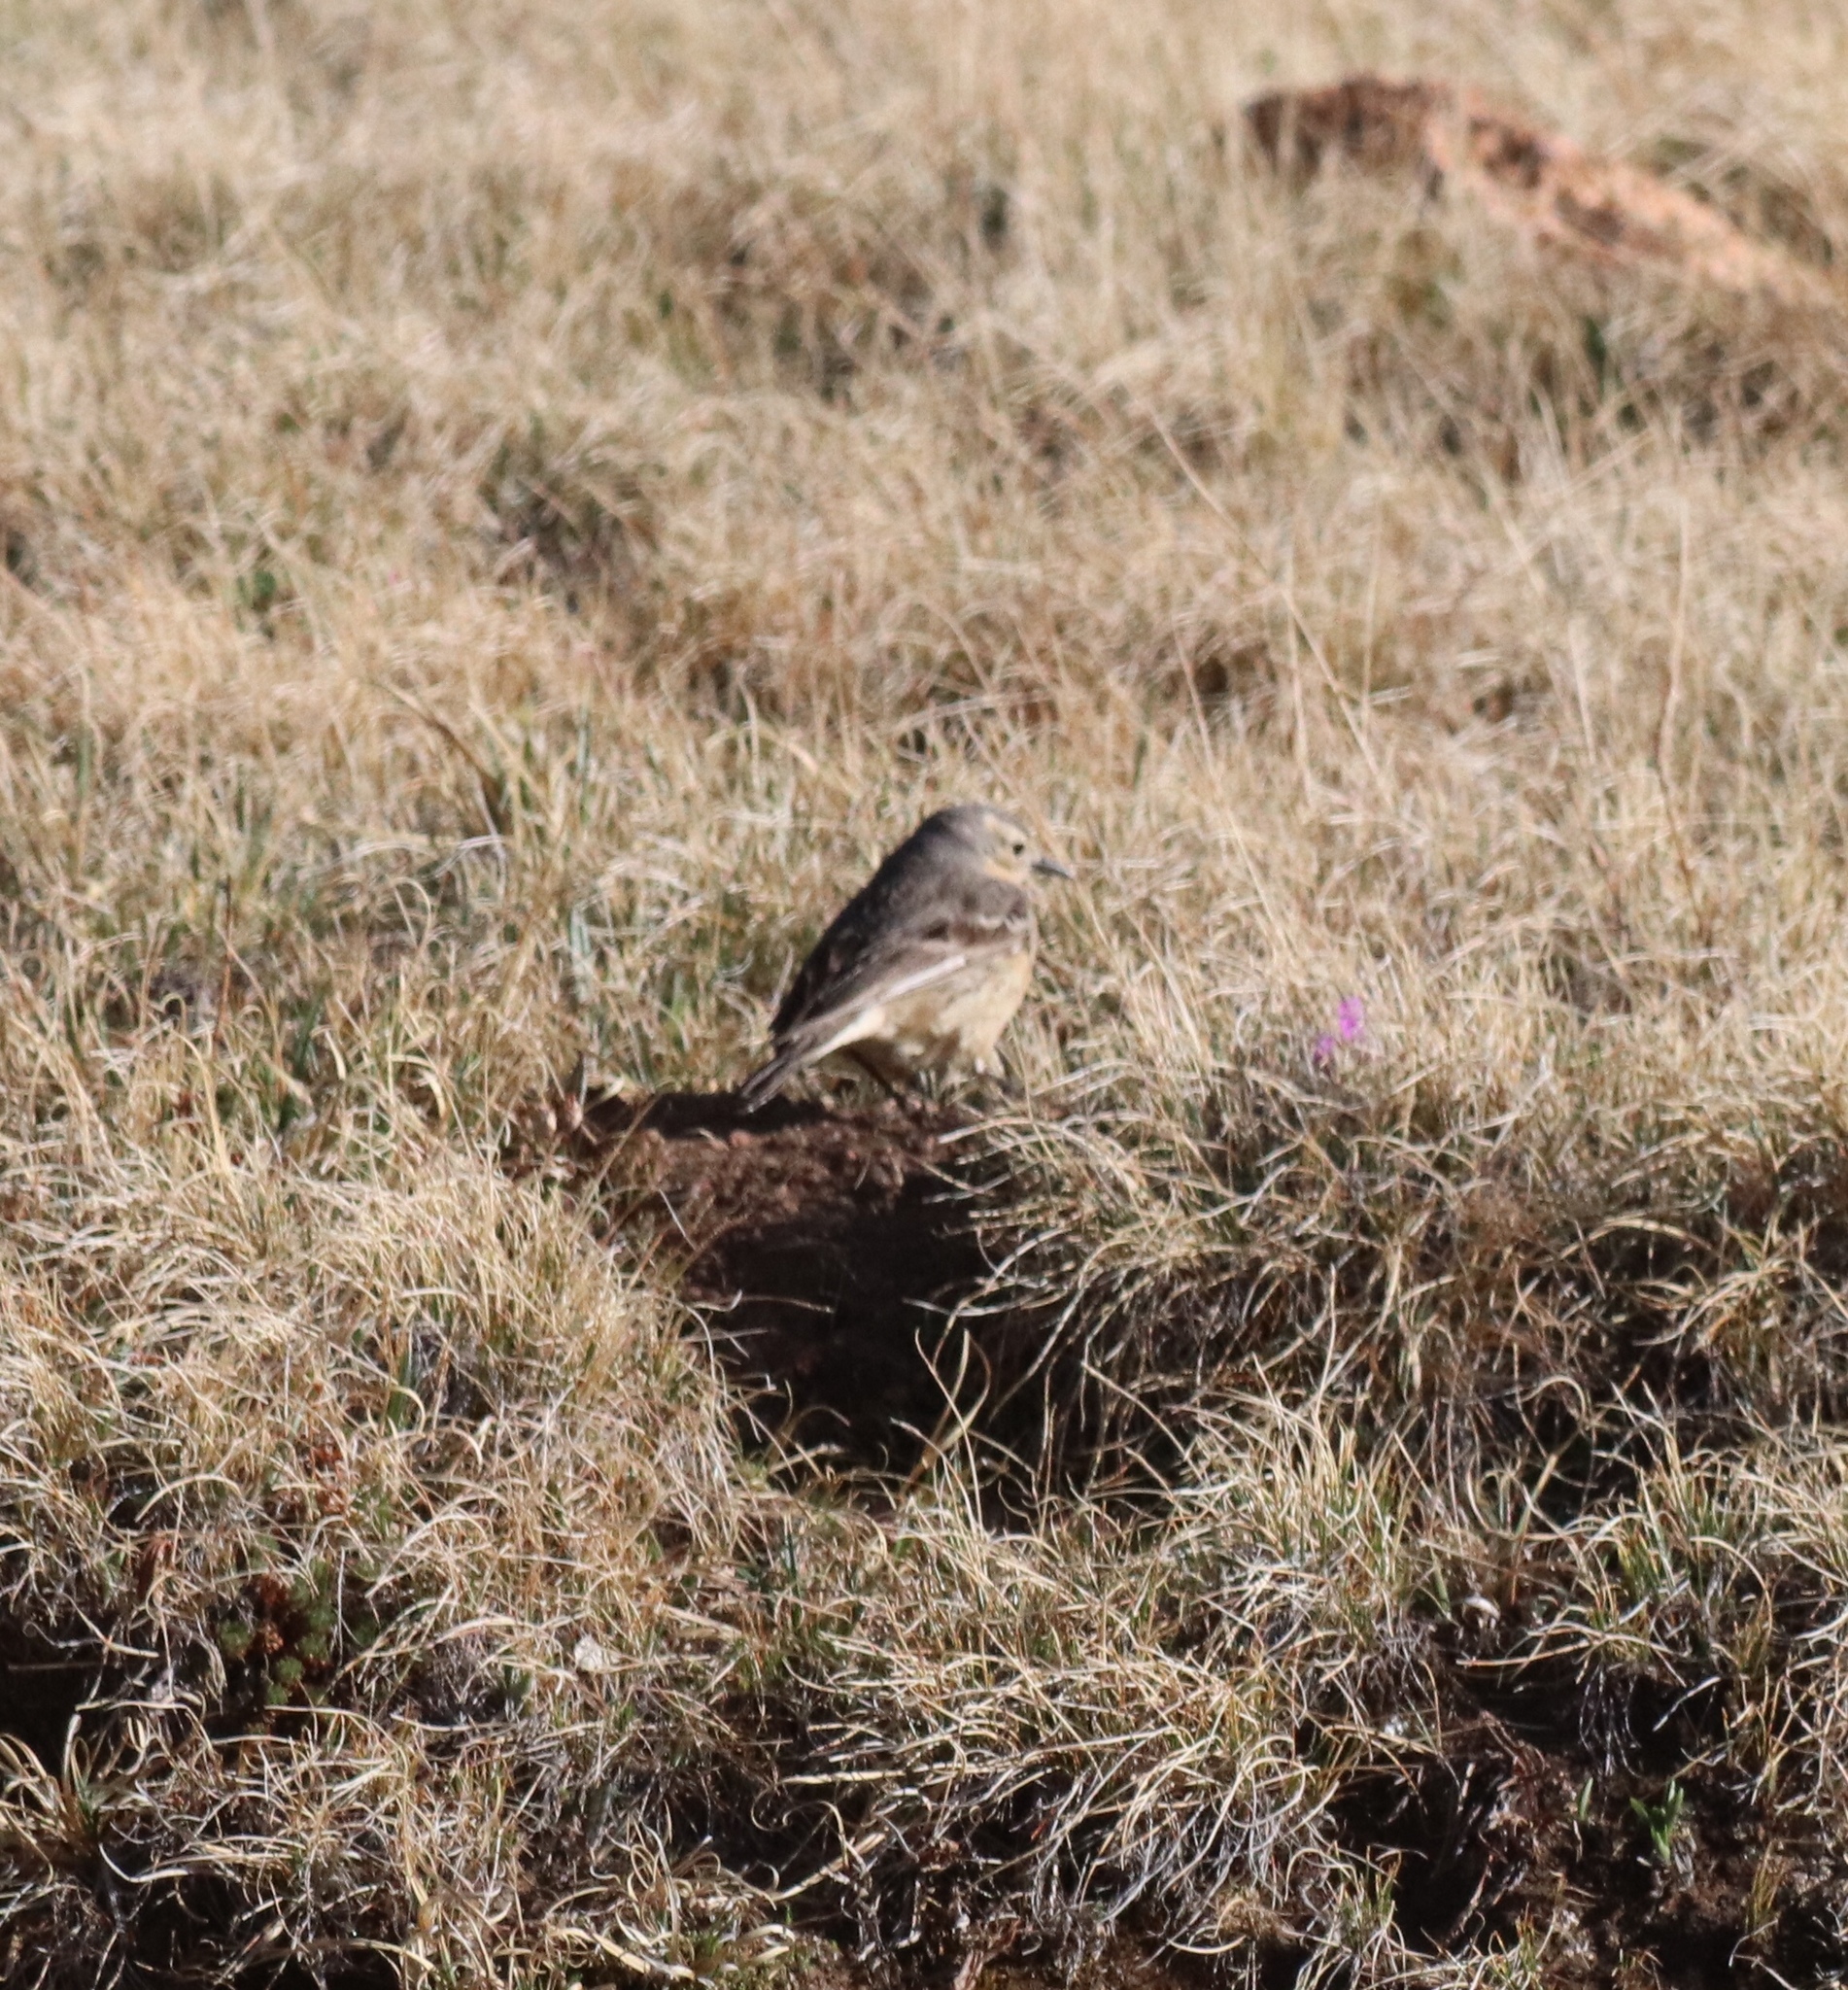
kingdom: Animalia
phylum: Chordata
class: Aves
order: Passeriformes
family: Motacillidae
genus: Anthus
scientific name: Anthus rubescens
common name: Buff-bellied pipit
